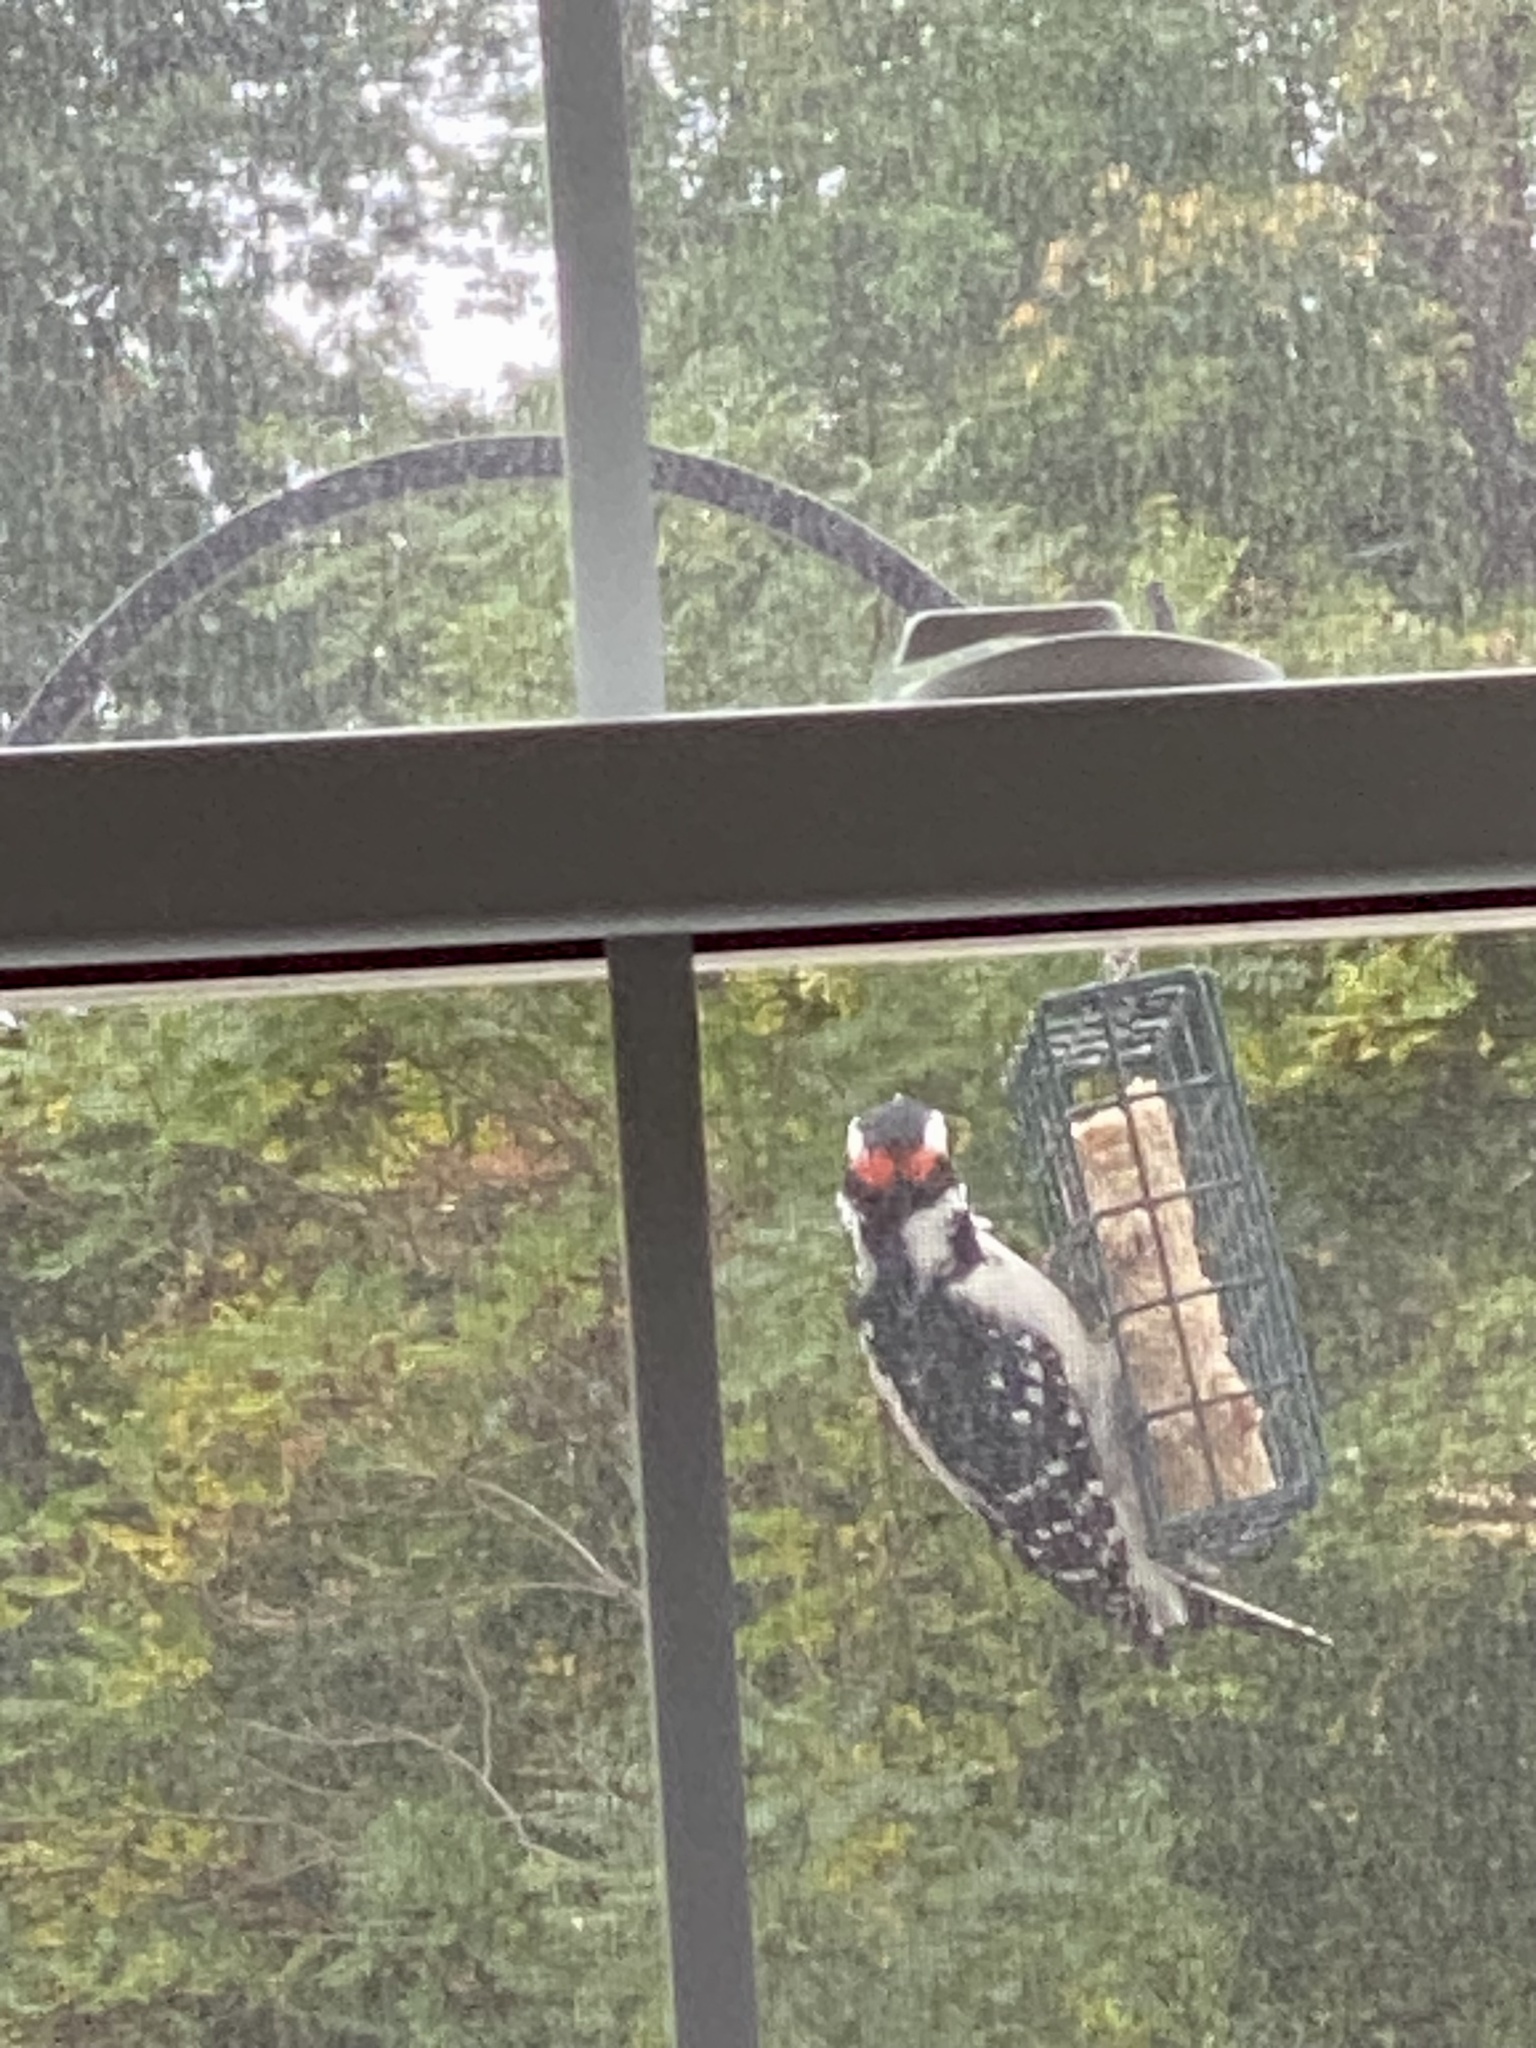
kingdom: Animalia
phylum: Chordata
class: Aves
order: Piciformes
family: Picidae
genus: Leuconotopicus
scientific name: Leuconotopicus villosus
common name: Hairy woodpecker
